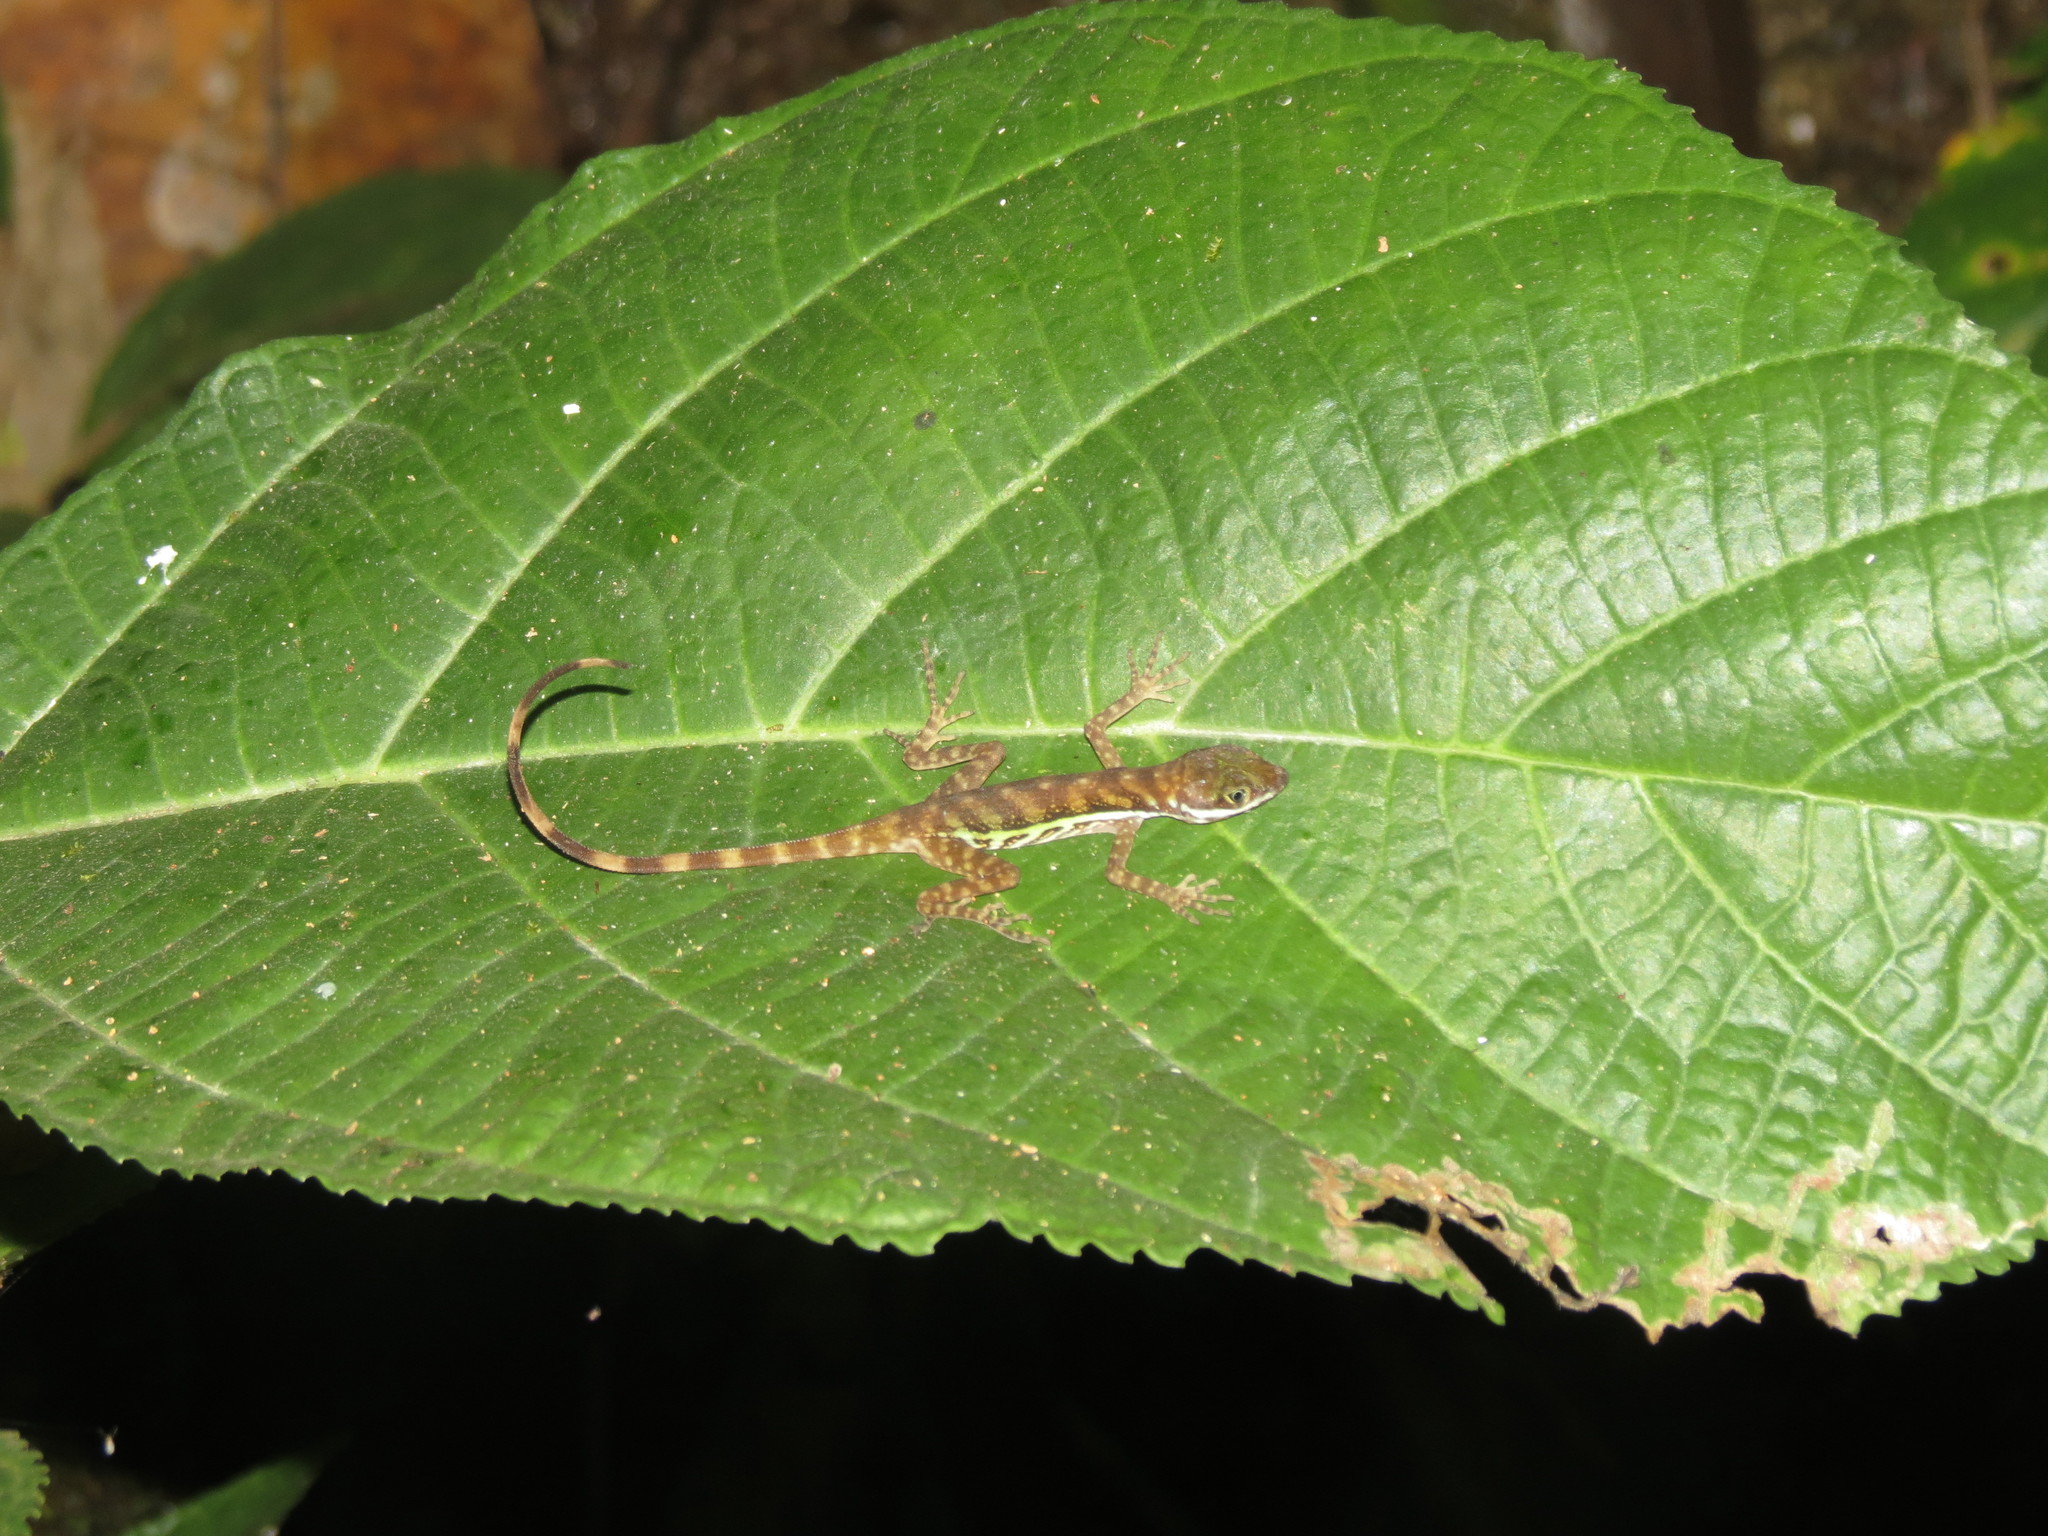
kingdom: Animalia
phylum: Chordata
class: Squamata
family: Dactyloidae
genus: Anolis
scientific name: Anolis aquaticus
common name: Aquatic anole
